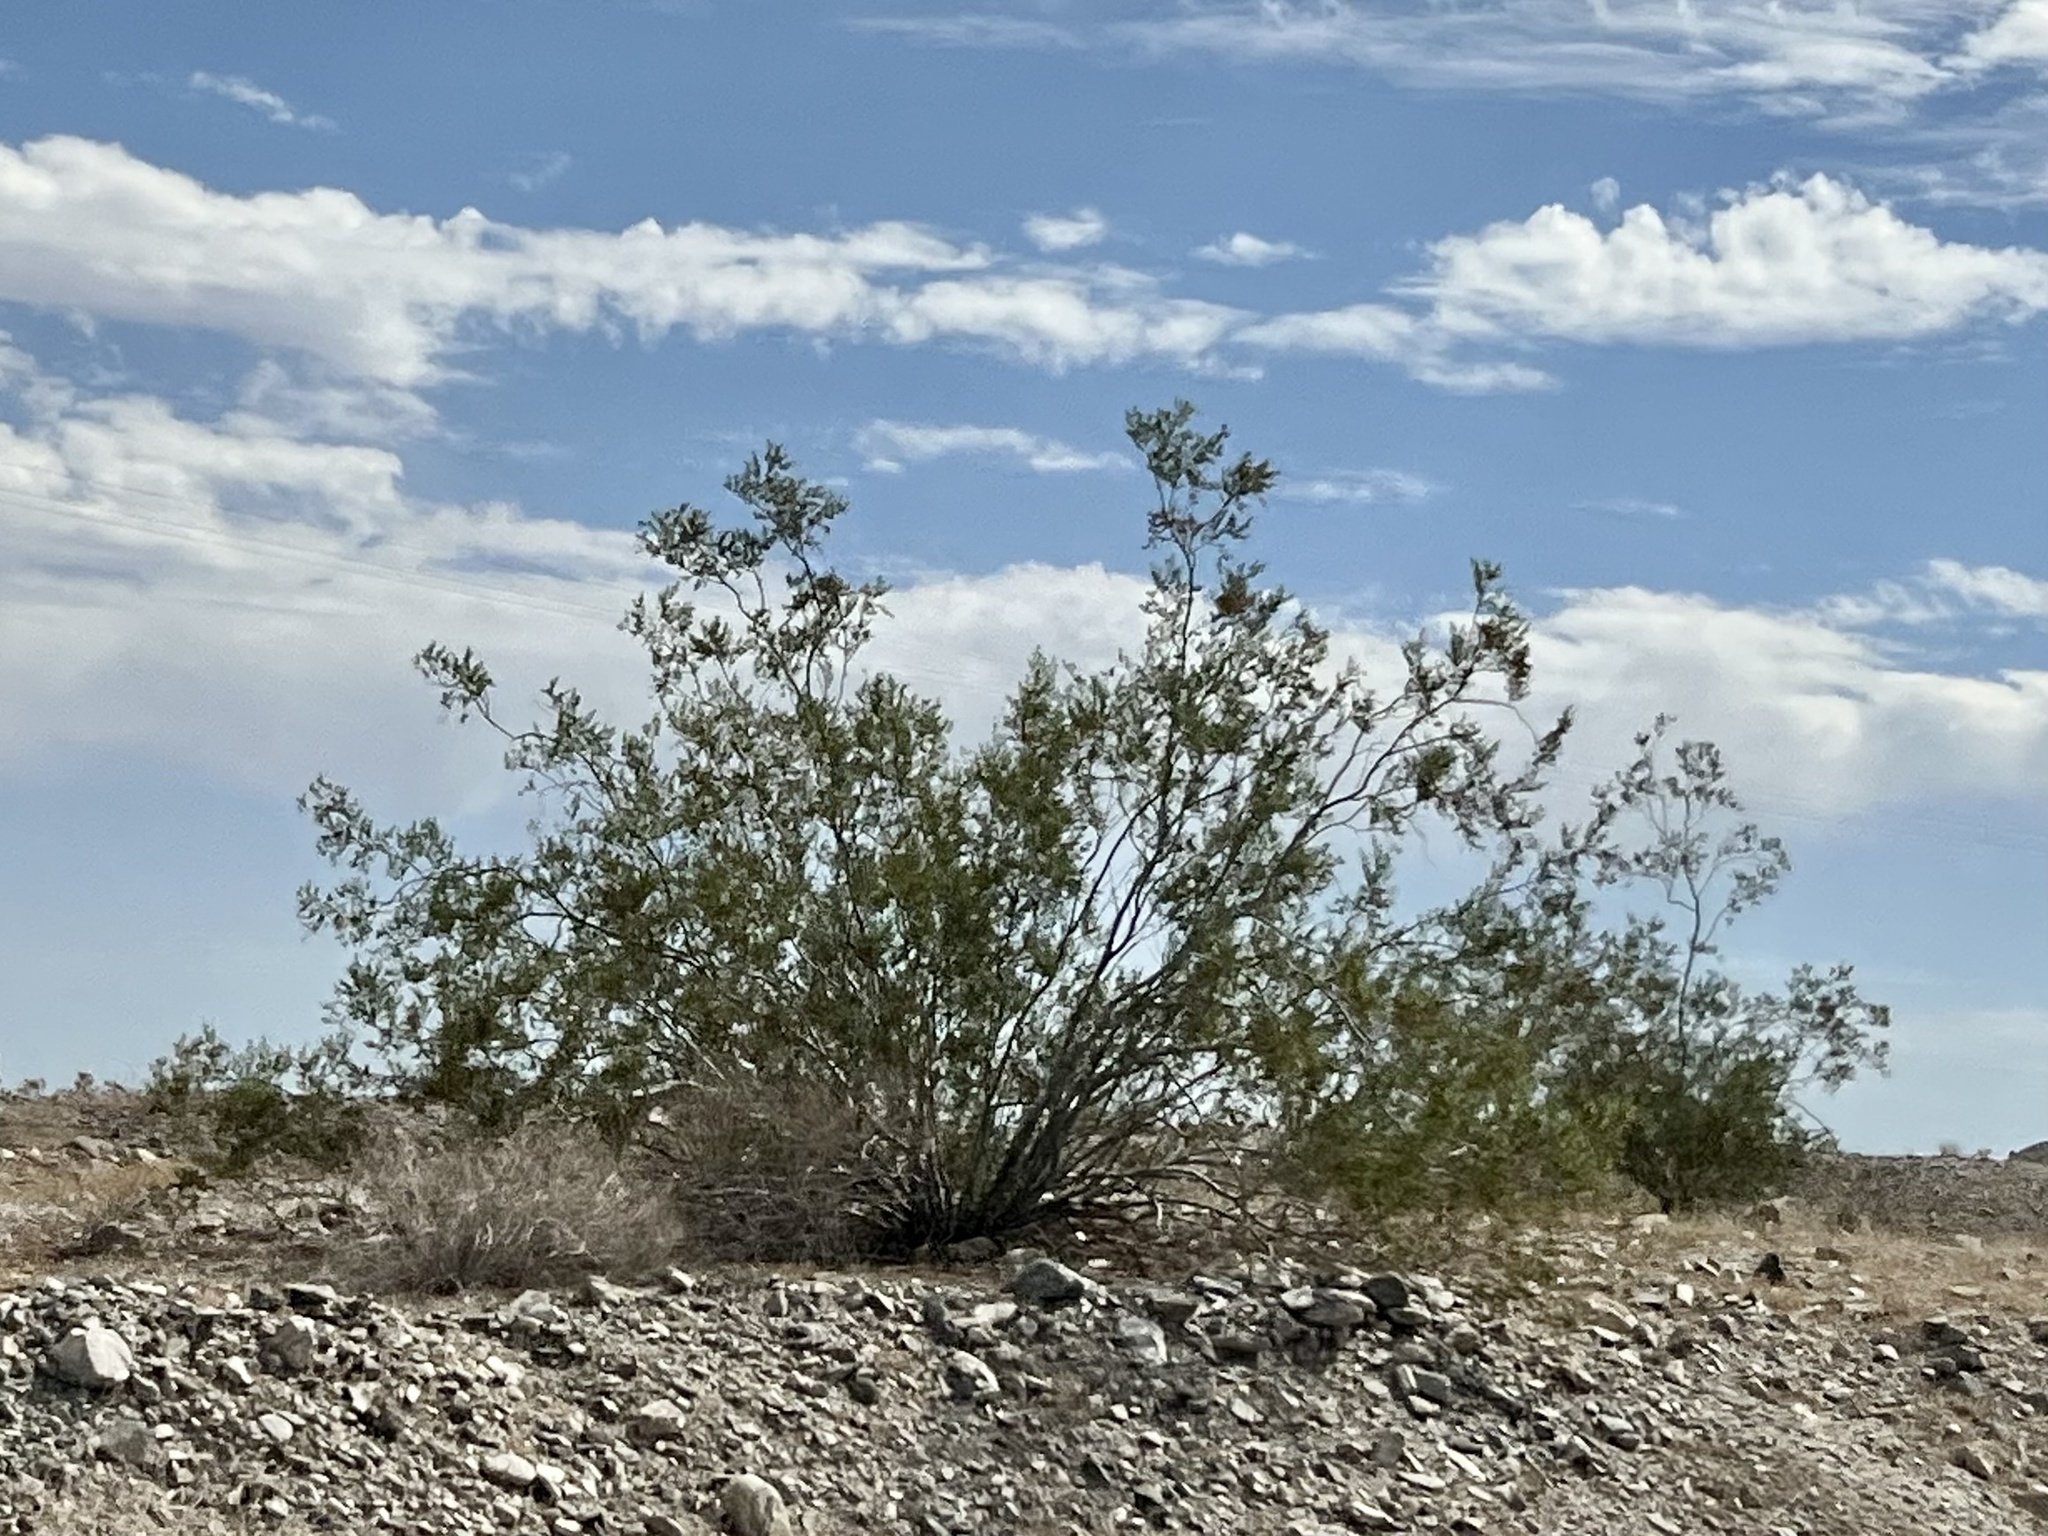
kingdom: Plantae
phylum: Tracheophyta
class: Magnoliopsida
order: Zygophyllales
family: Zygophyllaceae
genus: Larrea
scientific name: Larrea tridentata
